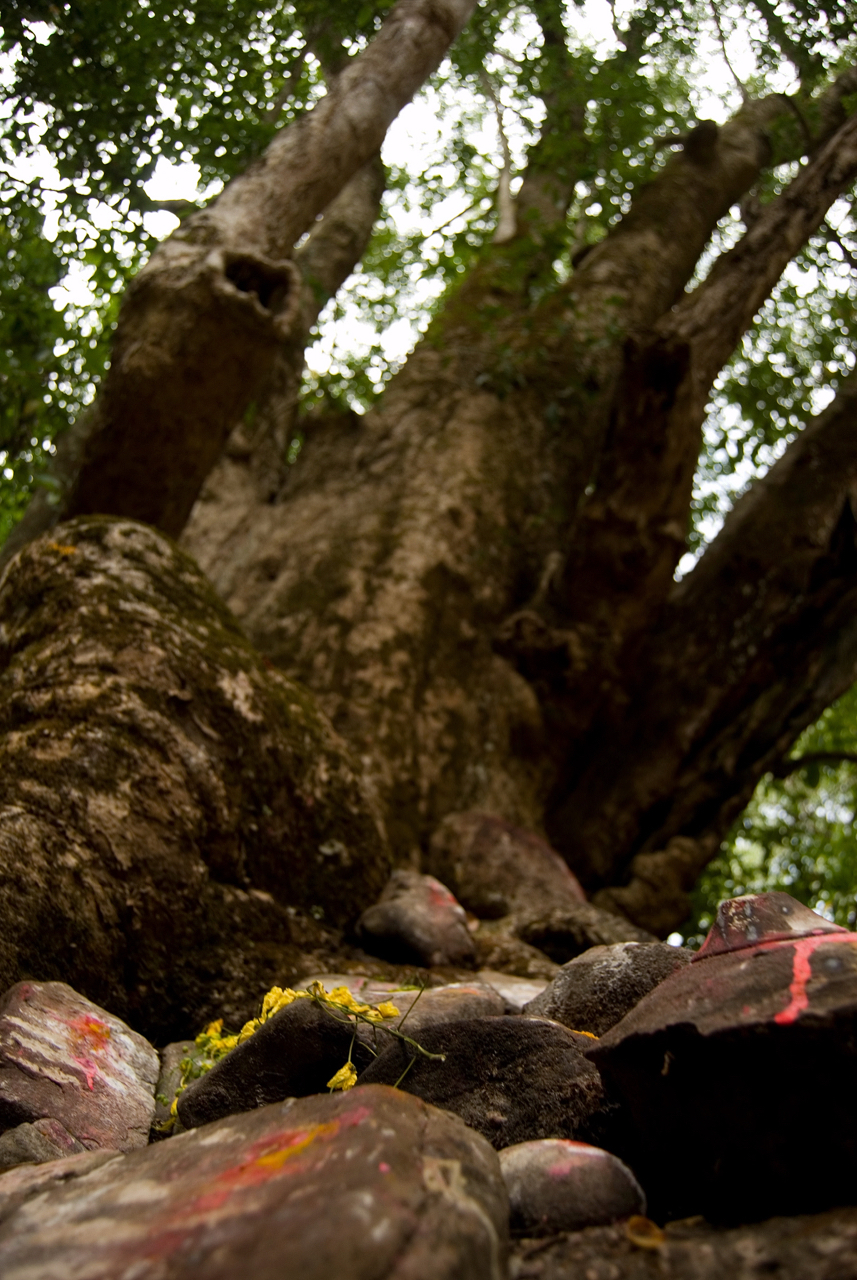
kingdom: Plantae
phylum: Tracheophyta
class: Magnoliopsida
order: Magnoliales
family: Magnoliaceae
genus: Magnolia
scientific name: Magnolia champaca
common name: Champak
